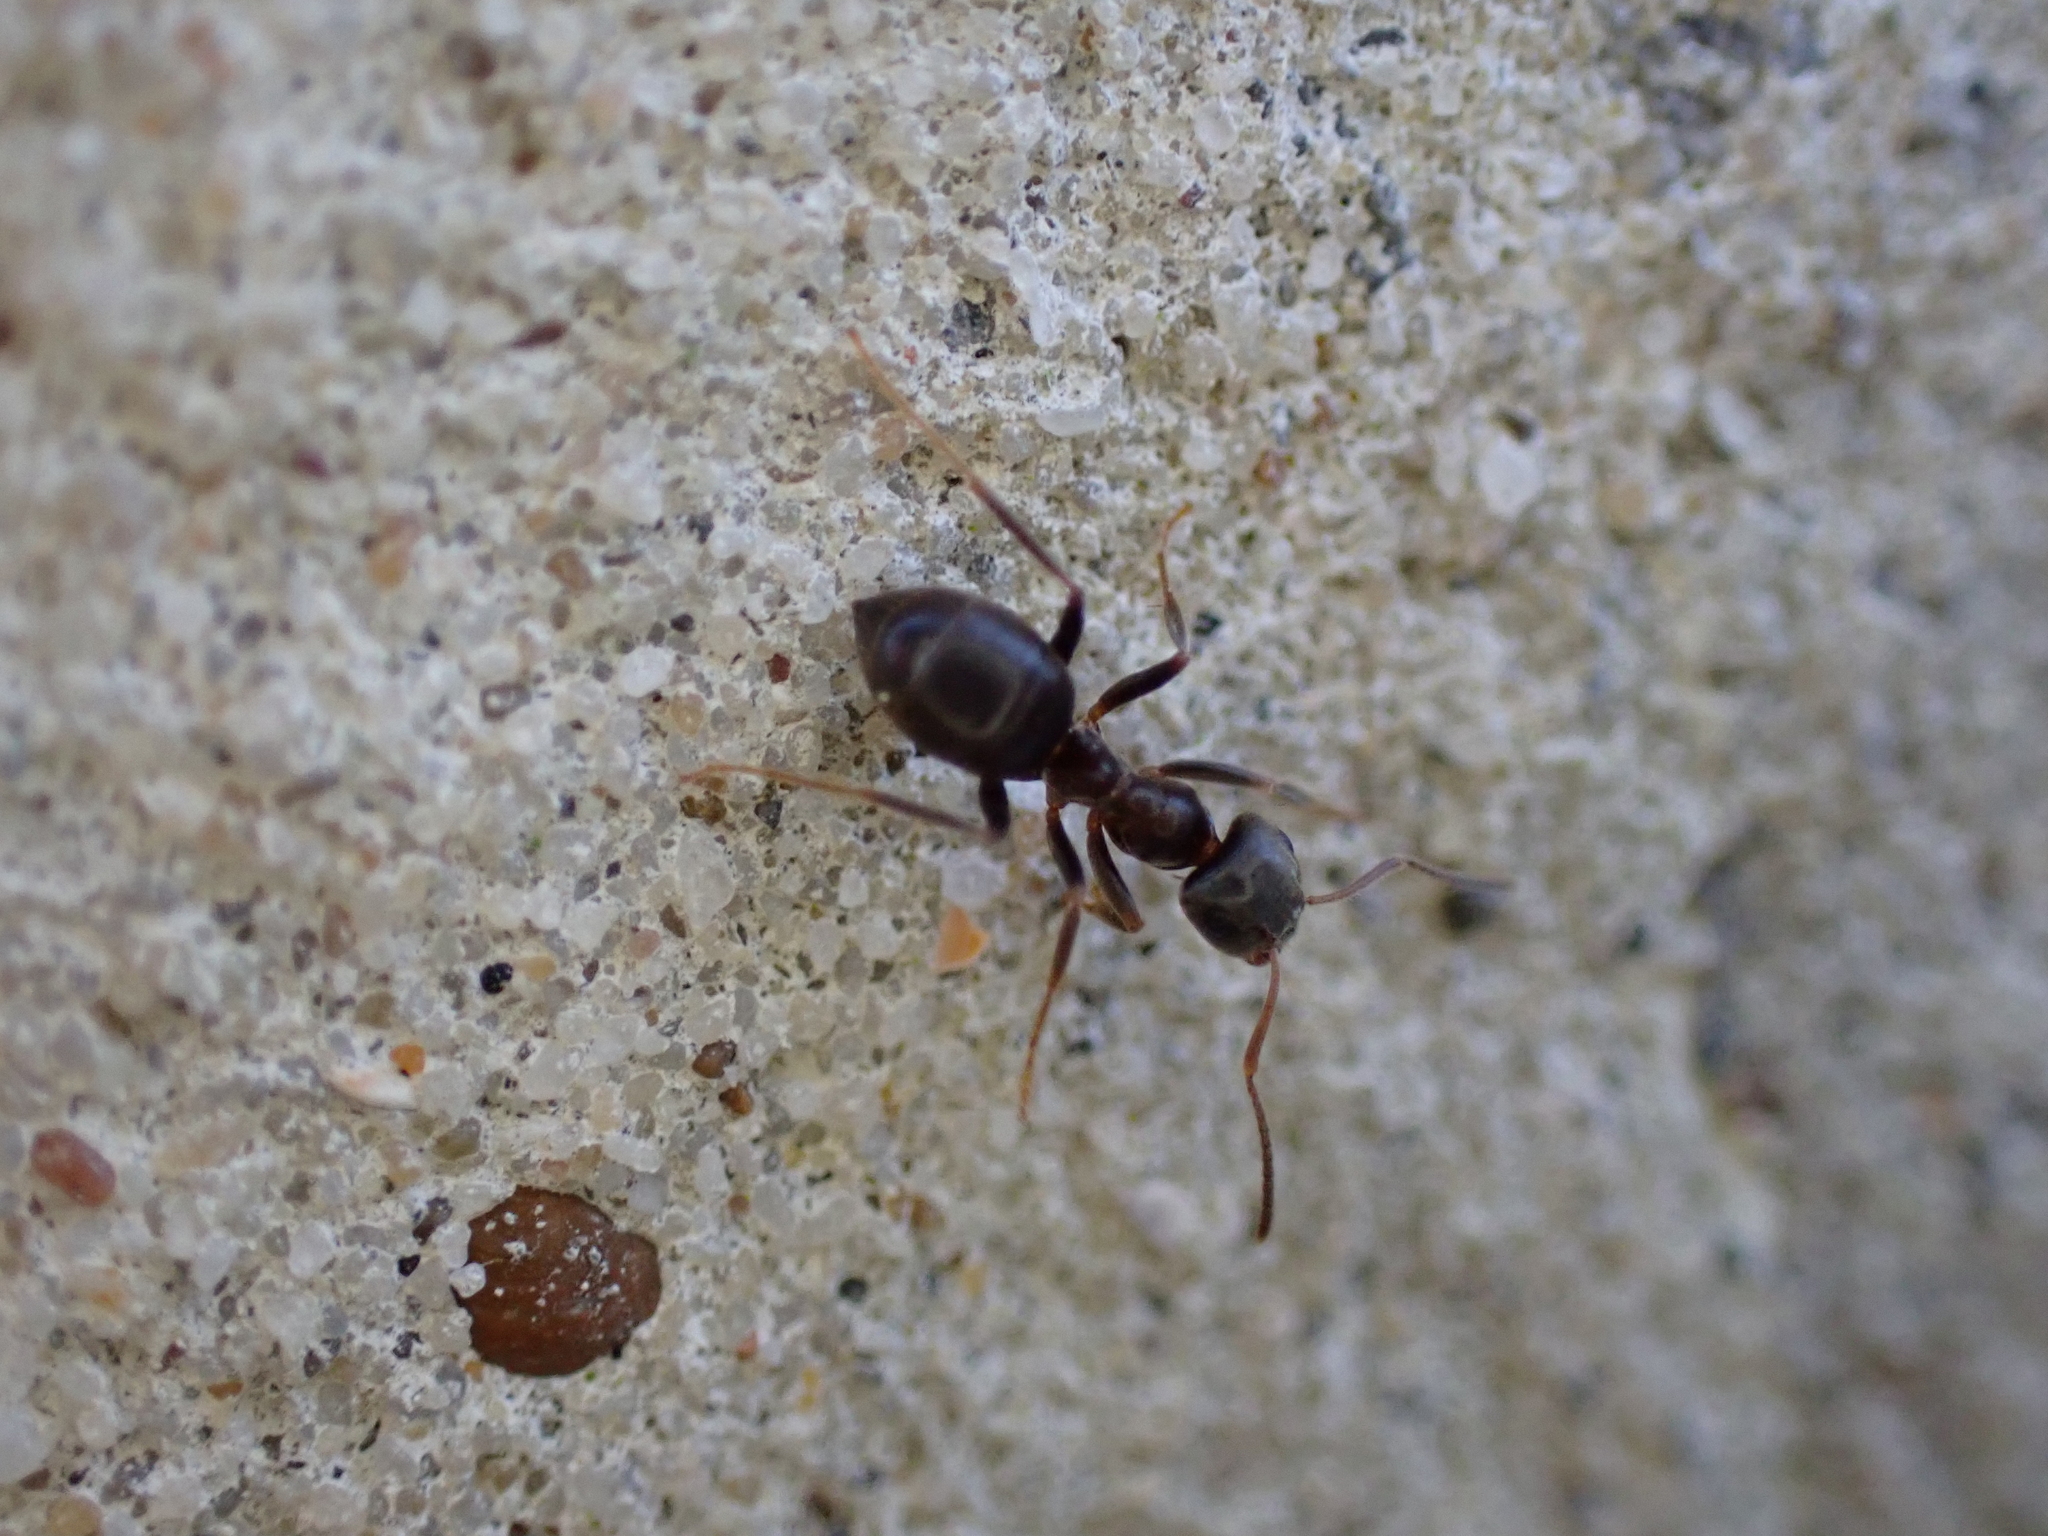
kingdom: Animalia
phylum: Arthropoda
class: Insecta
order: Hymenoptera
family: Formicidae
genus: Lasius
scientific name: Lasius
